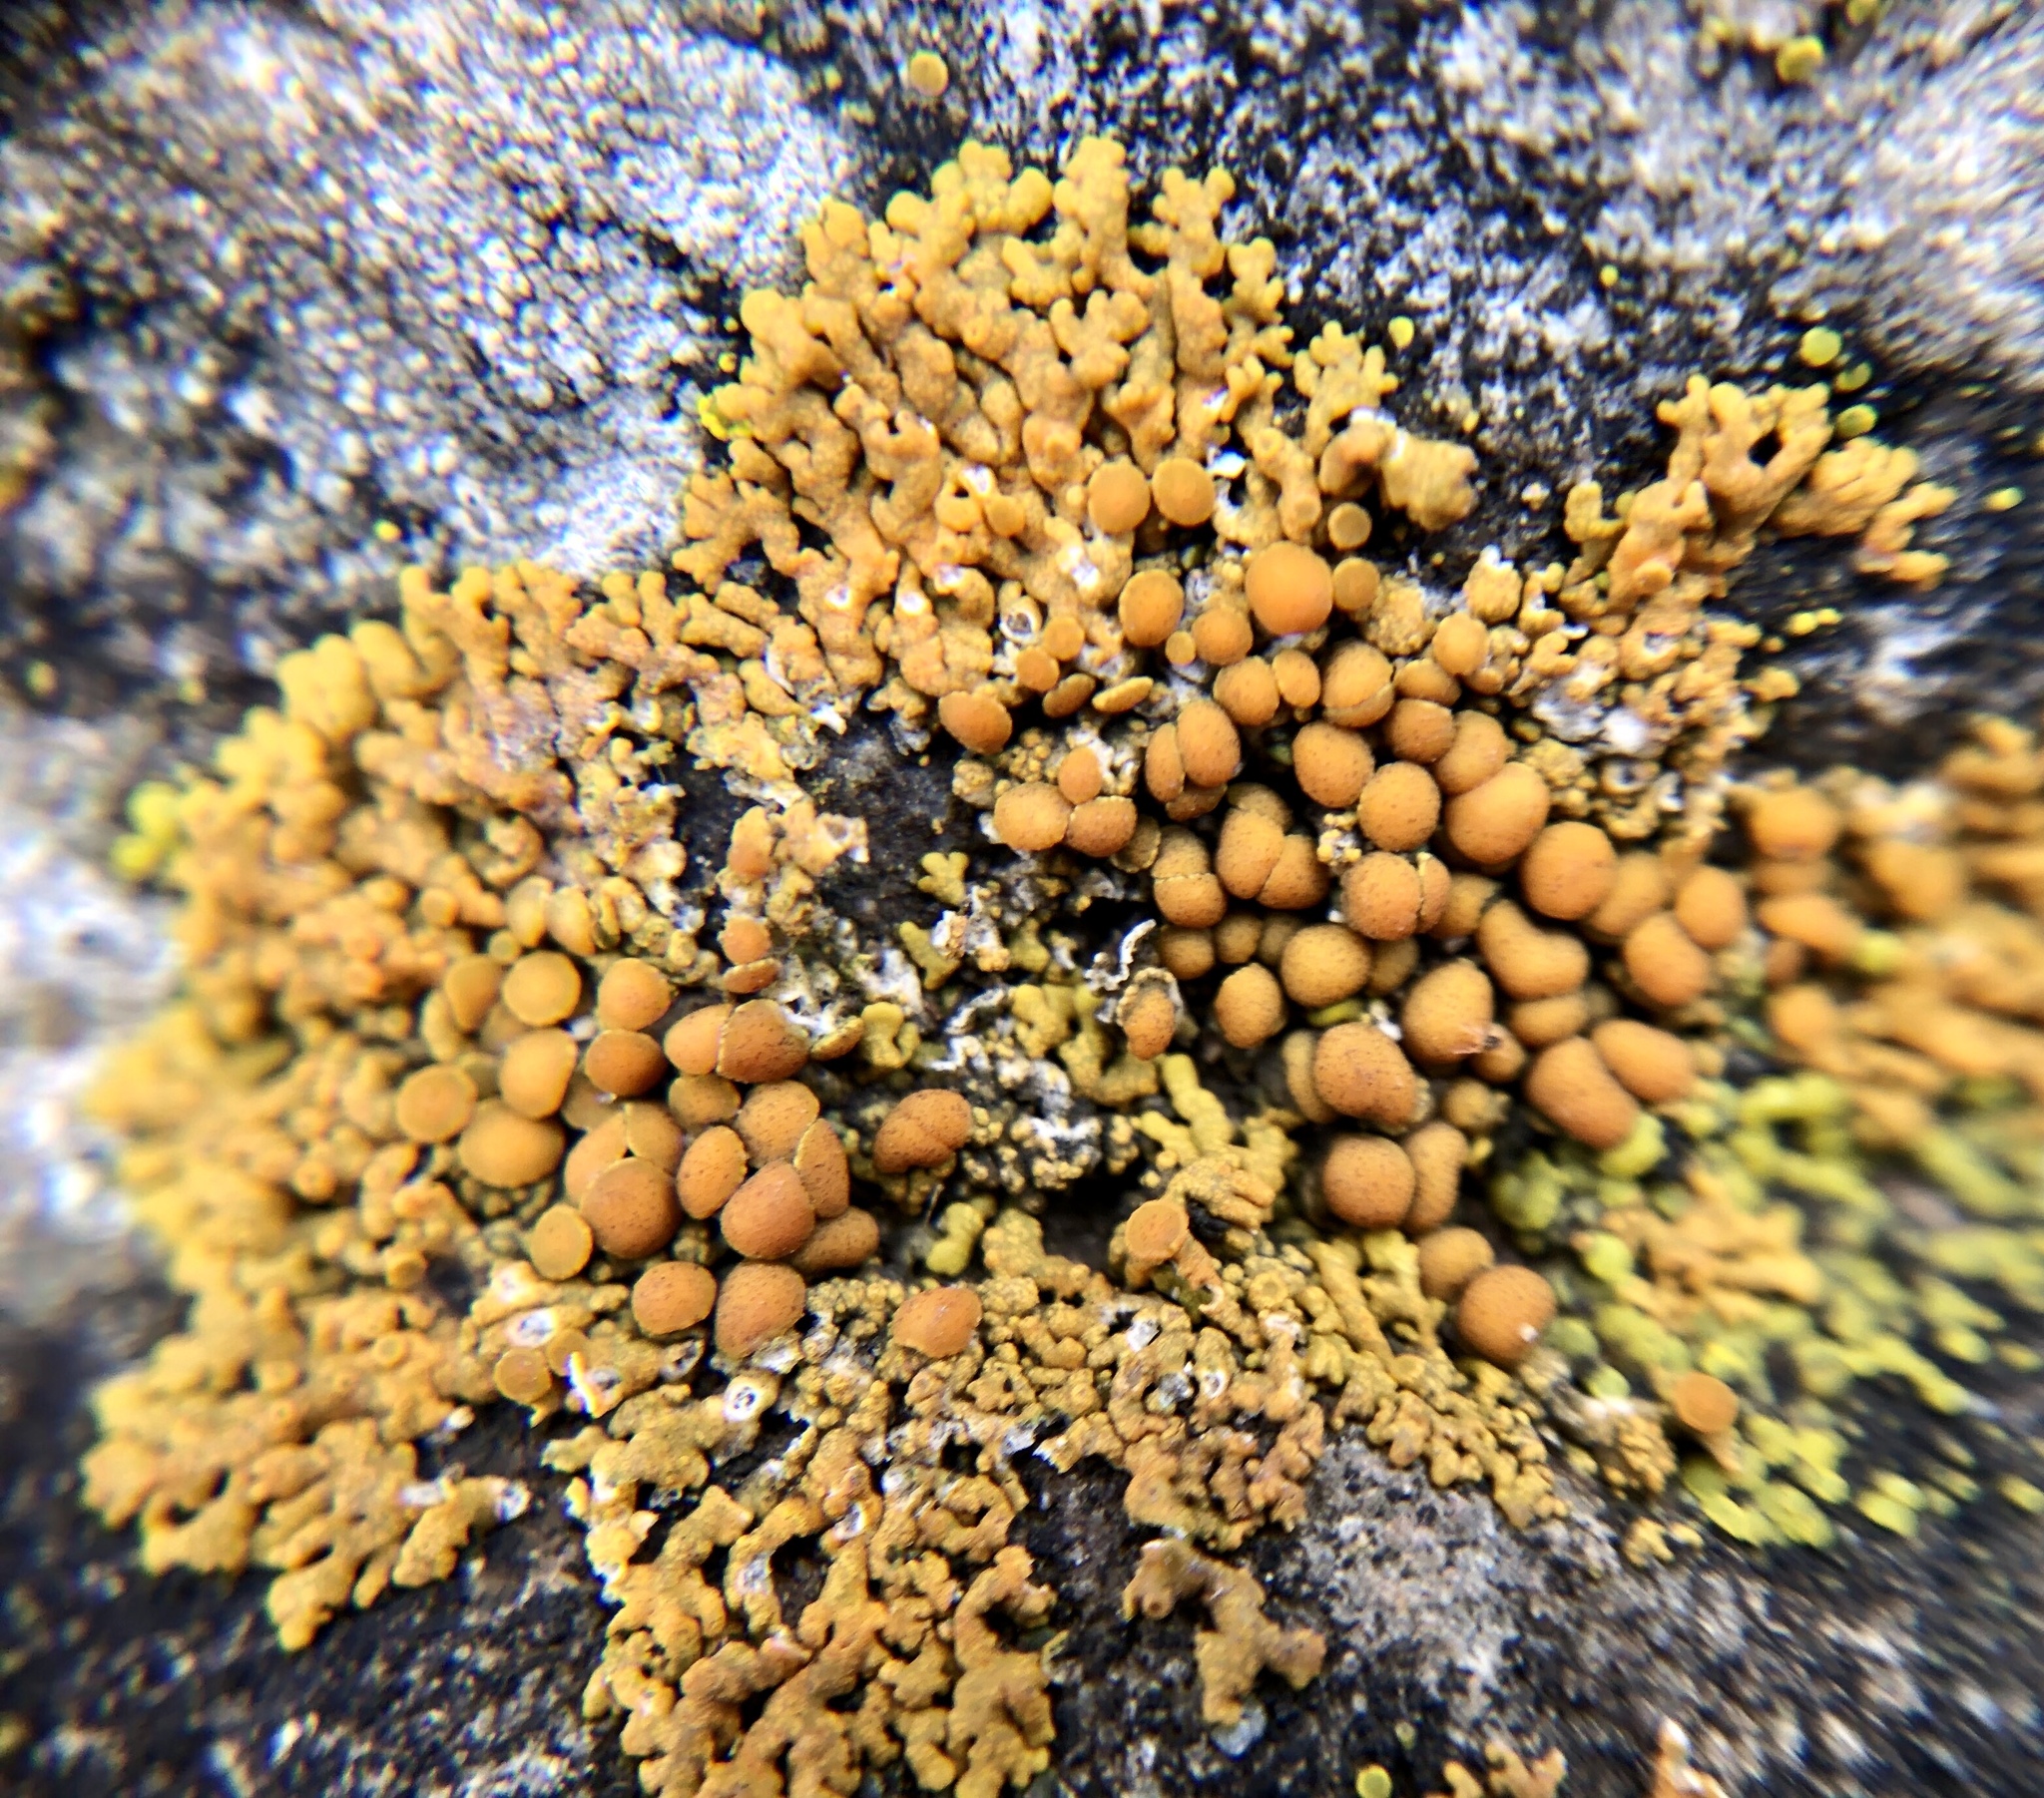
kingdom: Fungi
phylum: Ascomycota
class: Lecanoromycetes
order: Teloschistales
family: Teloschistaceae
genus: Xanthoria
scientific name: Xanthoria elegans
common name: Elegant sunburst lichen
